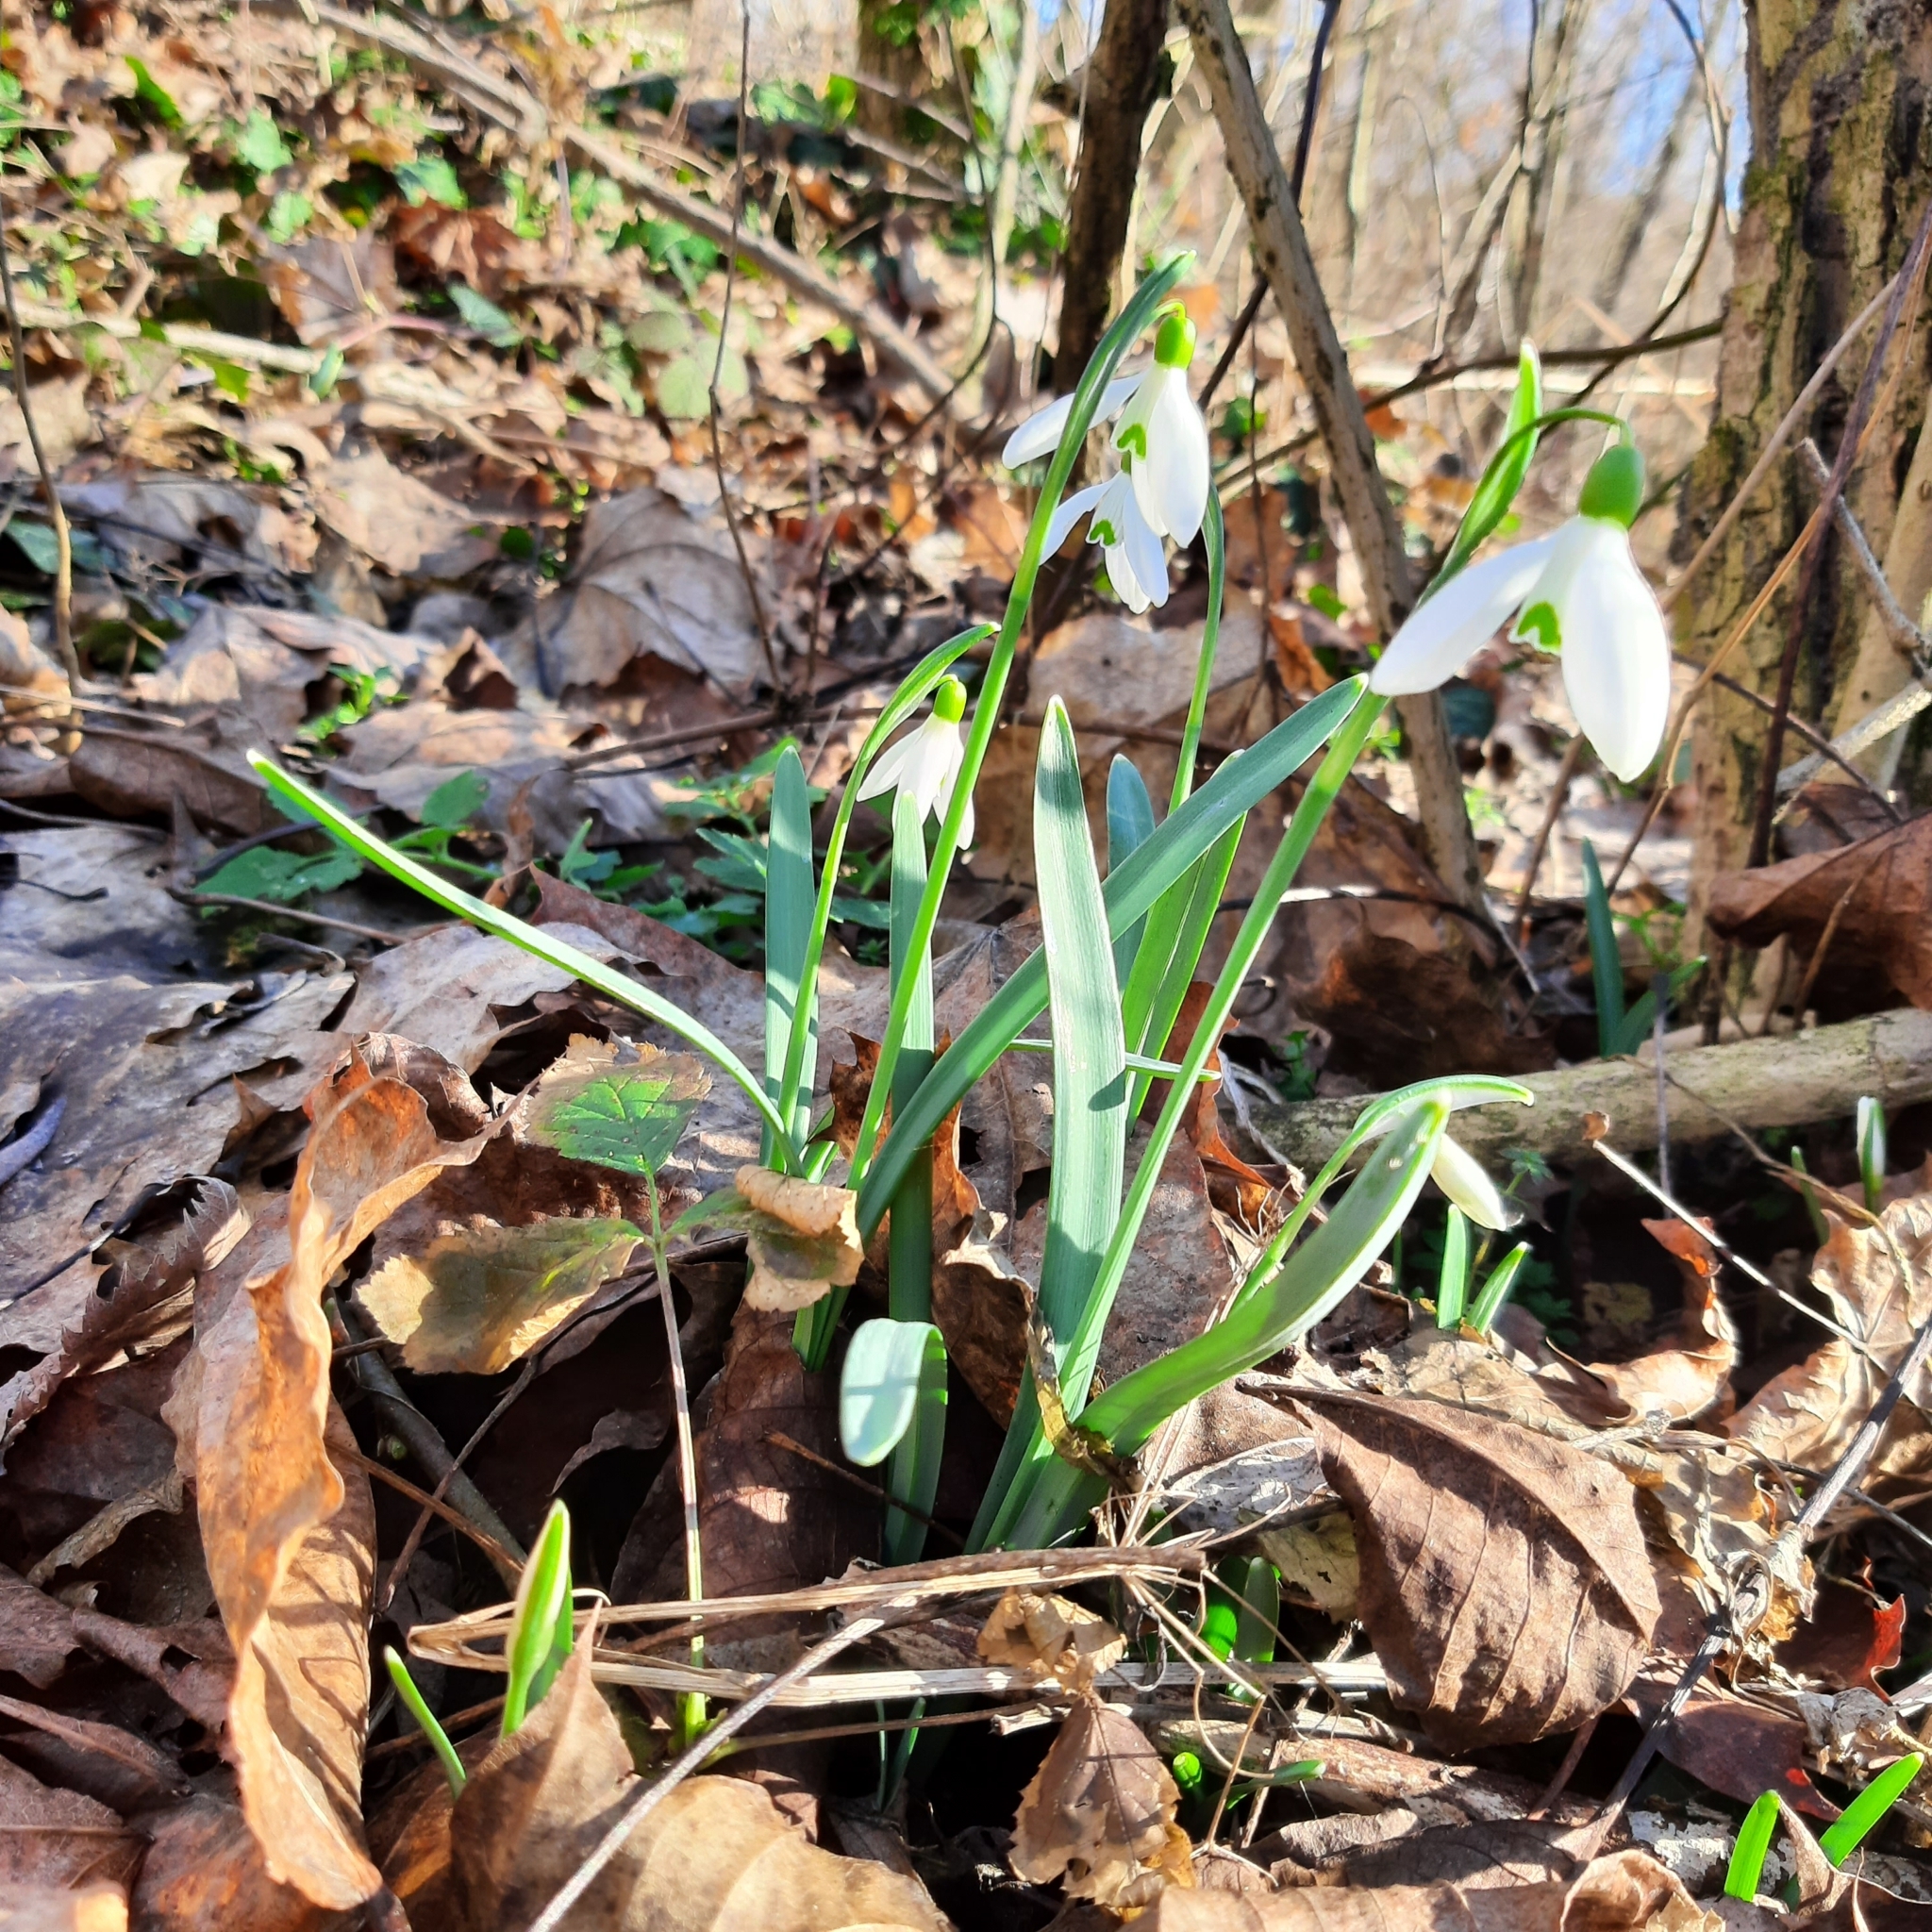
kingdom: Plantae
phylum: Tracheophyta
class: Liliopsida
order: Asparagales
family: Amaryllidaceae
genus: Galanthus
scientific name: Galanthus nivalis
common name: Snowdrop
